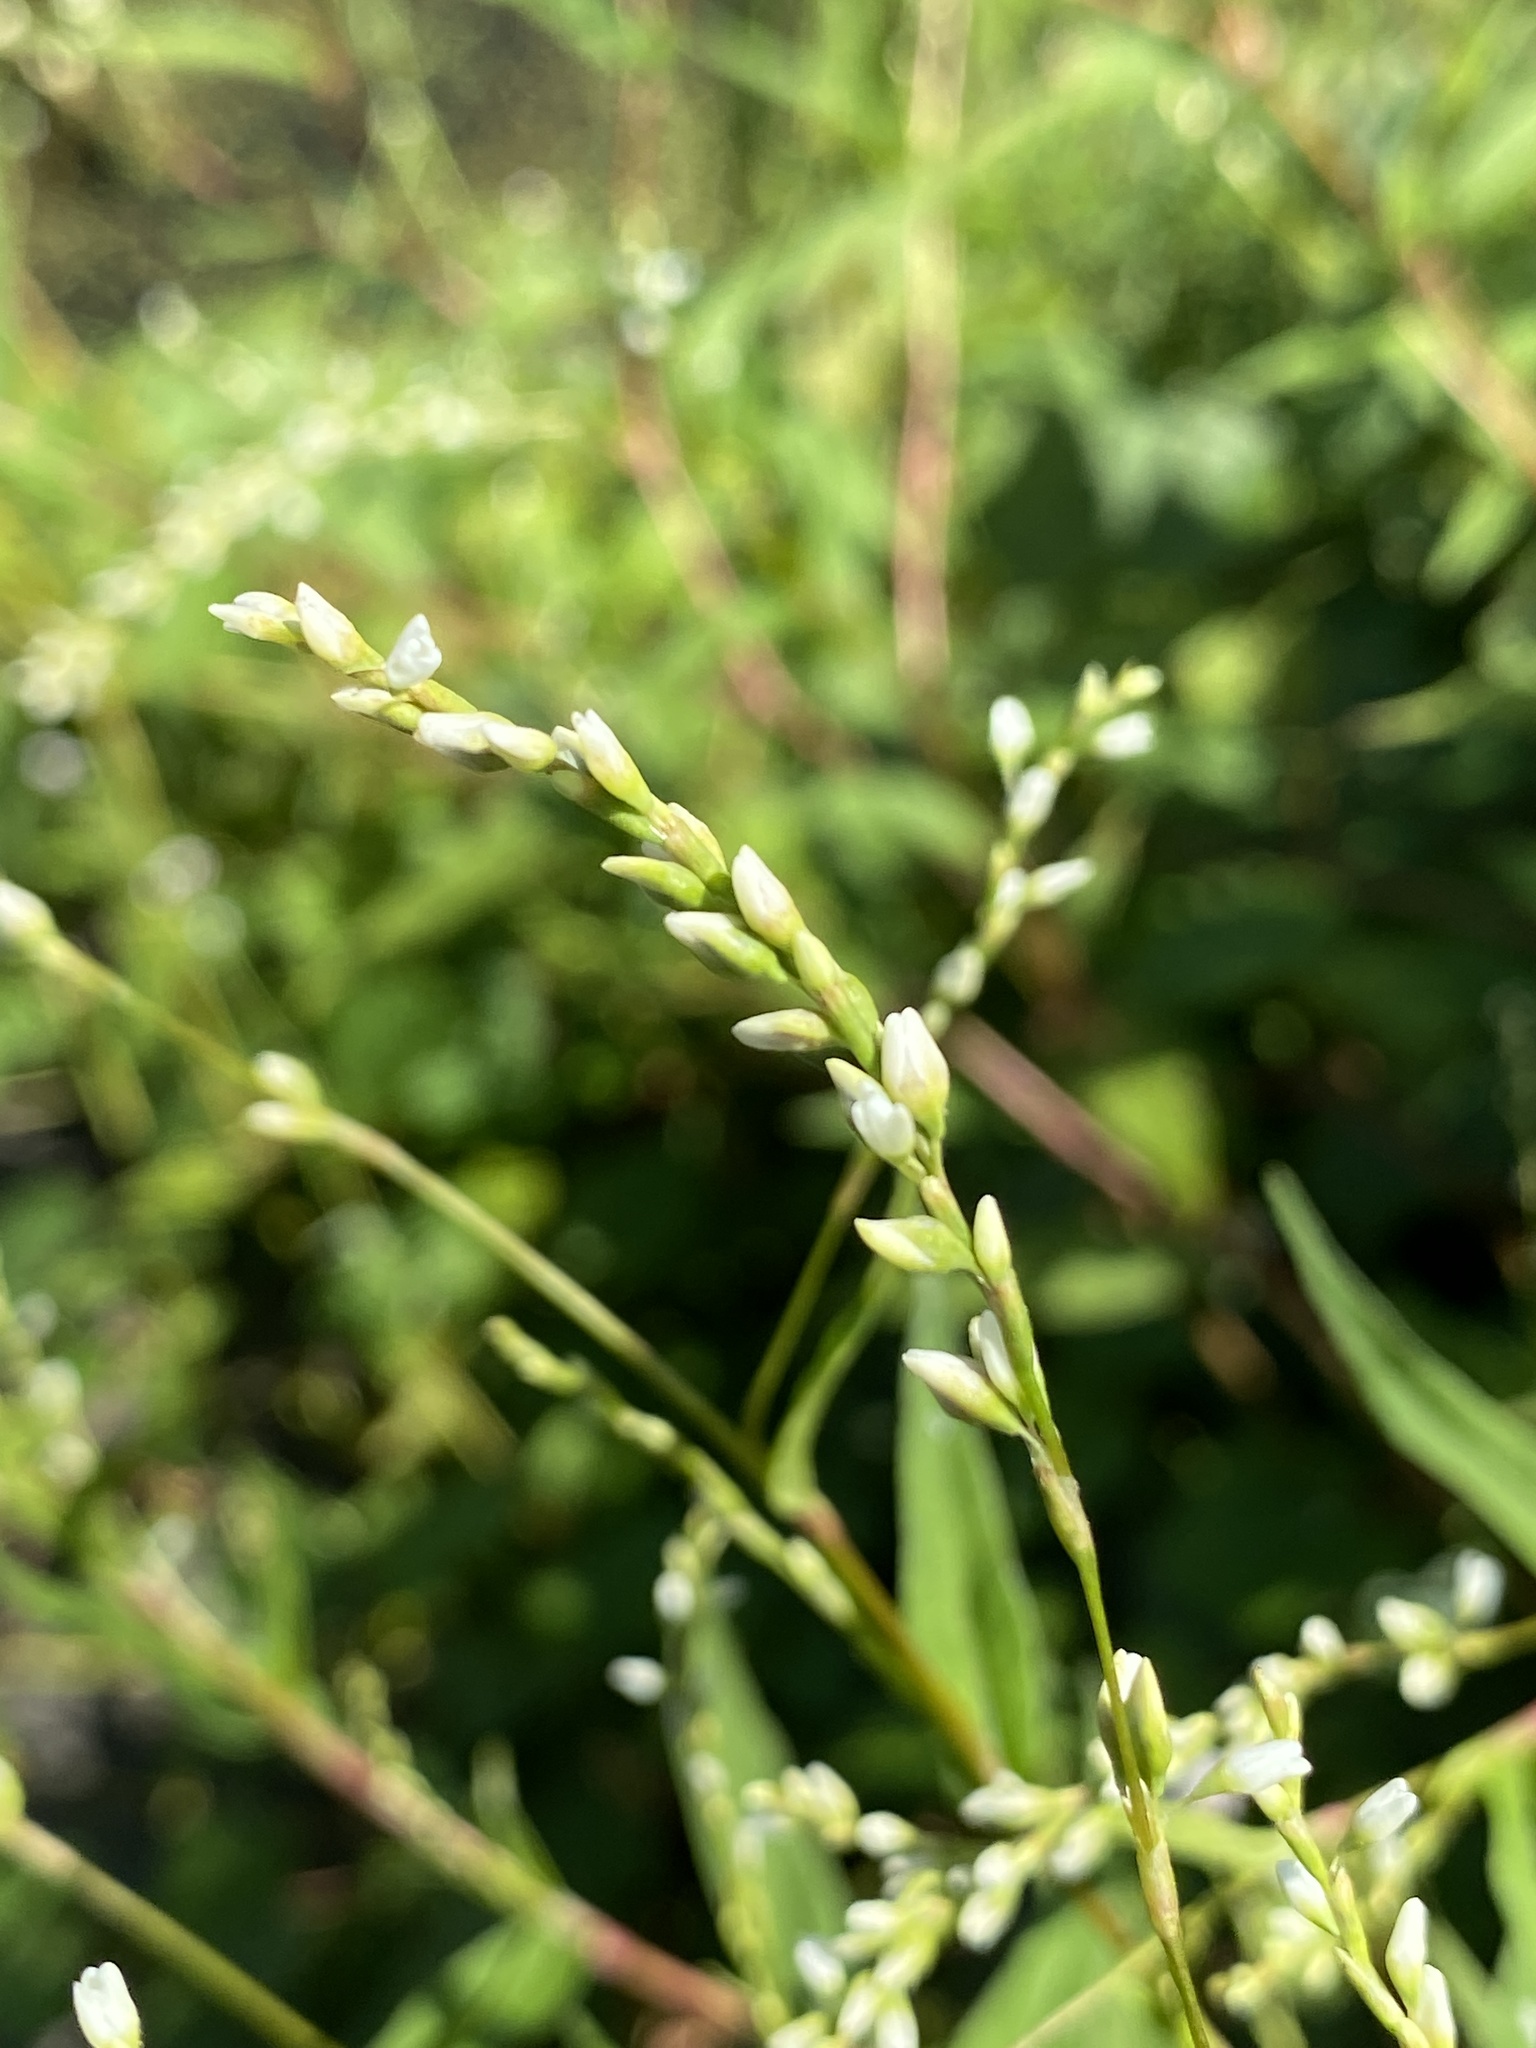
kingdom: Plantae
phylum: Tracheophyta
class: Magnoliopsida
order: Caryophyllales
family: Polygonaceae
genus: Persicaria
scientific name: Persicaria punctata
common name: Dotted smartweed
